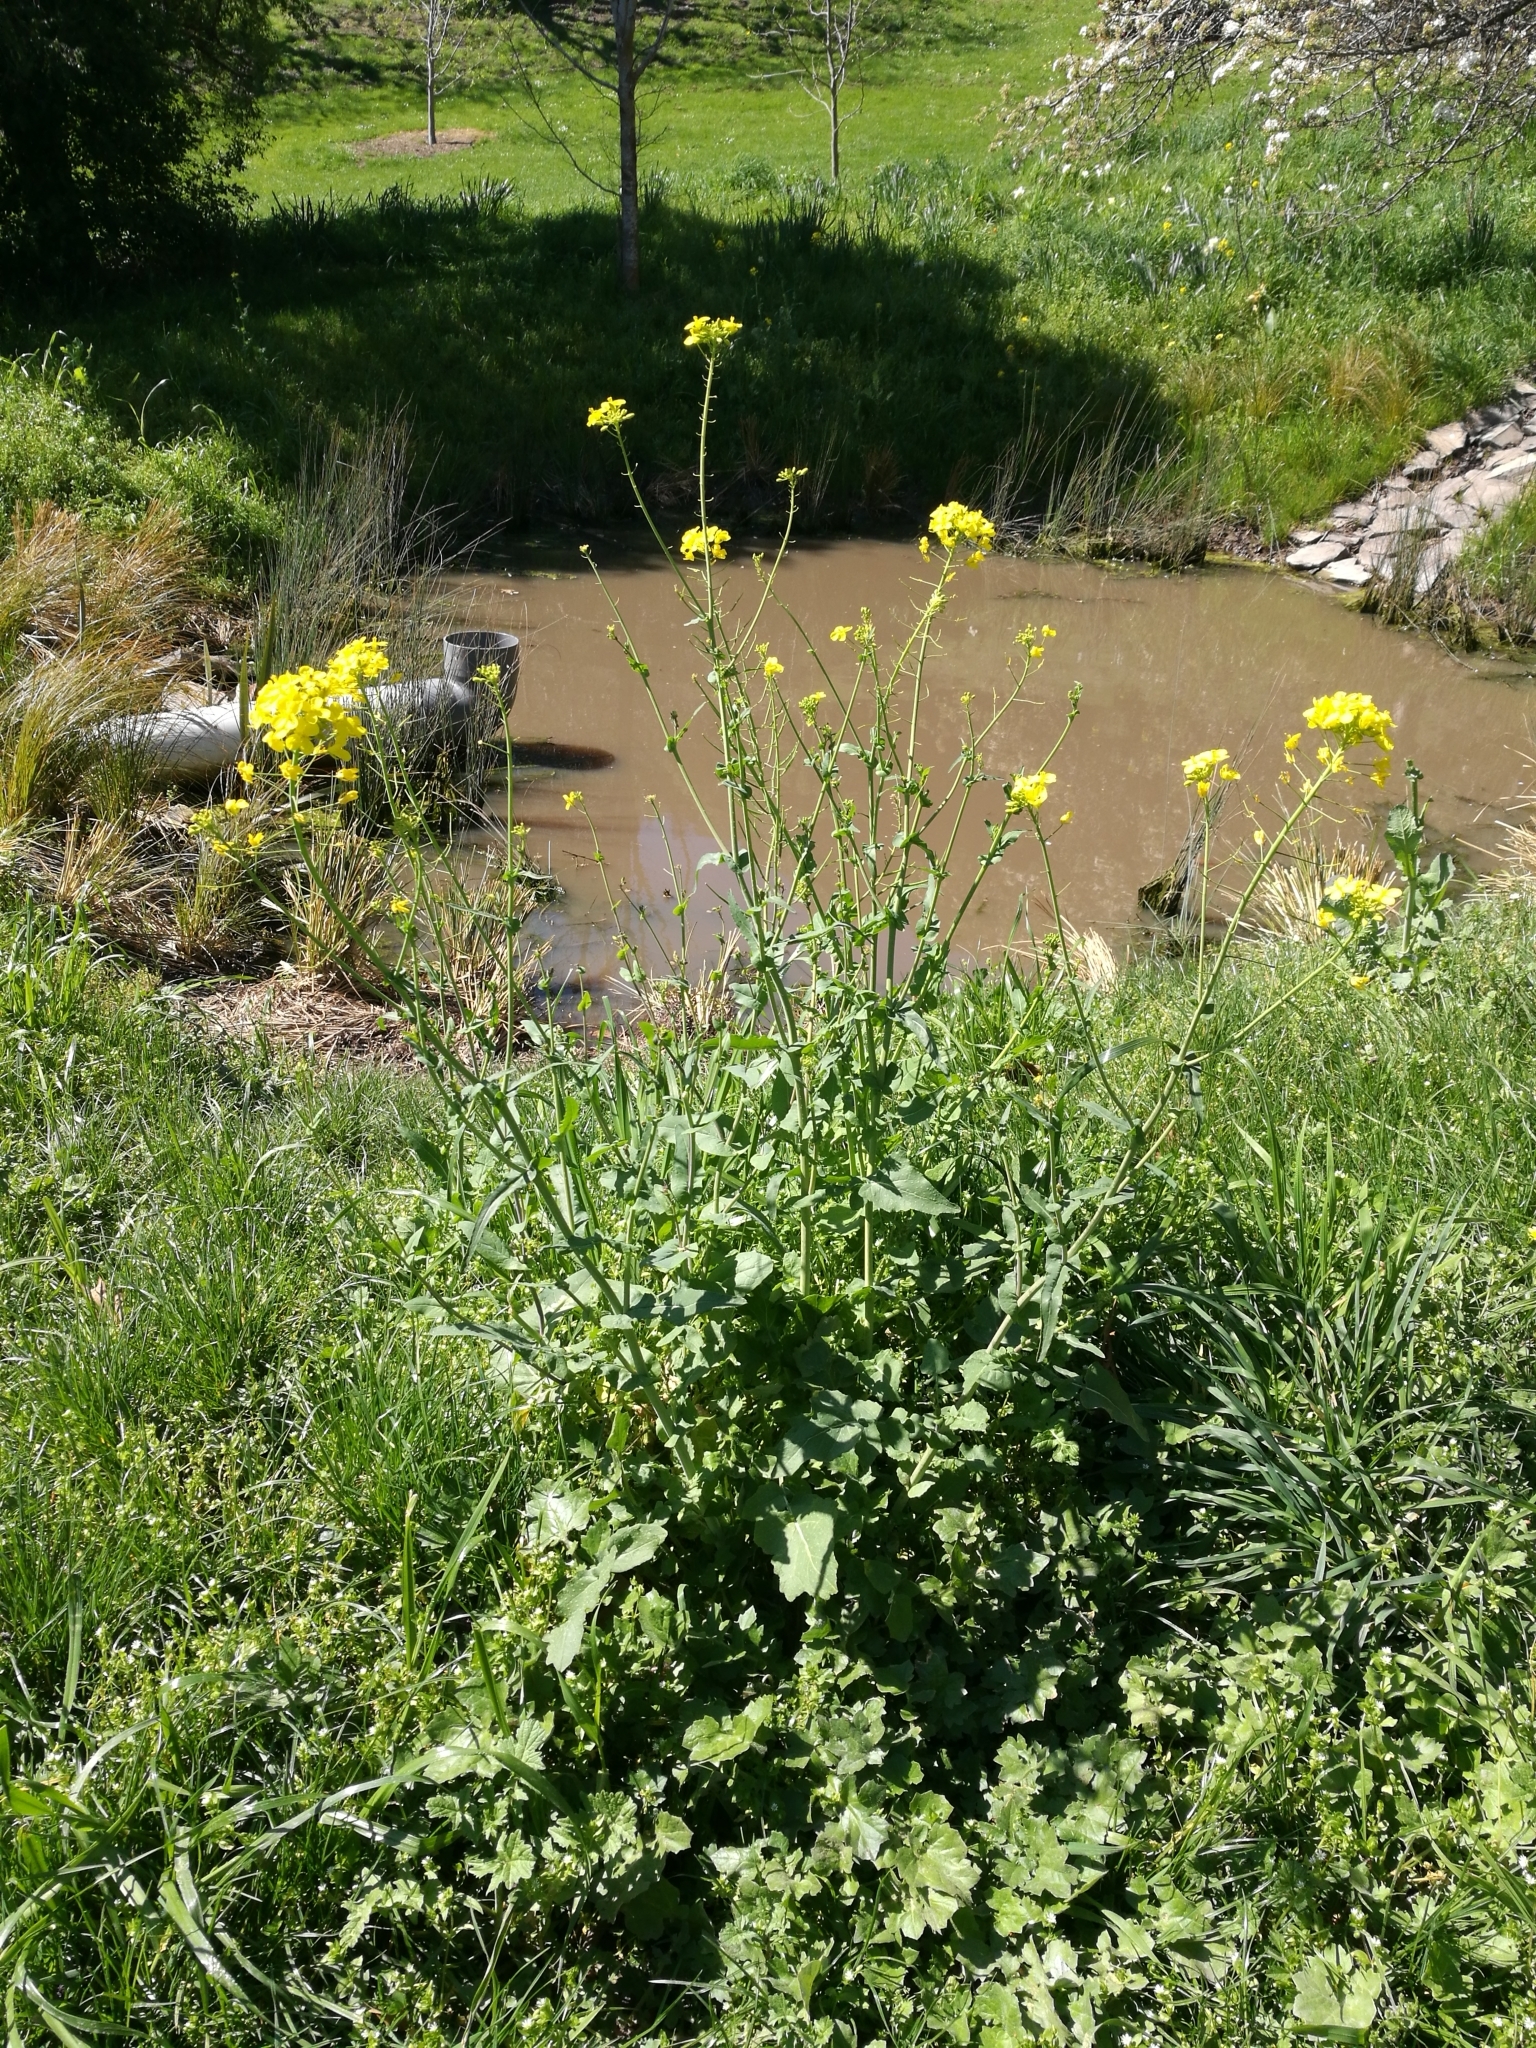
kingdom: Plantae
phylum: Tracheophyta
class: Magnoliopsida
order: Brassicales
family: Brassicaceae
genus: Brassica
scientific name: Brassica napus
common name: Rape
